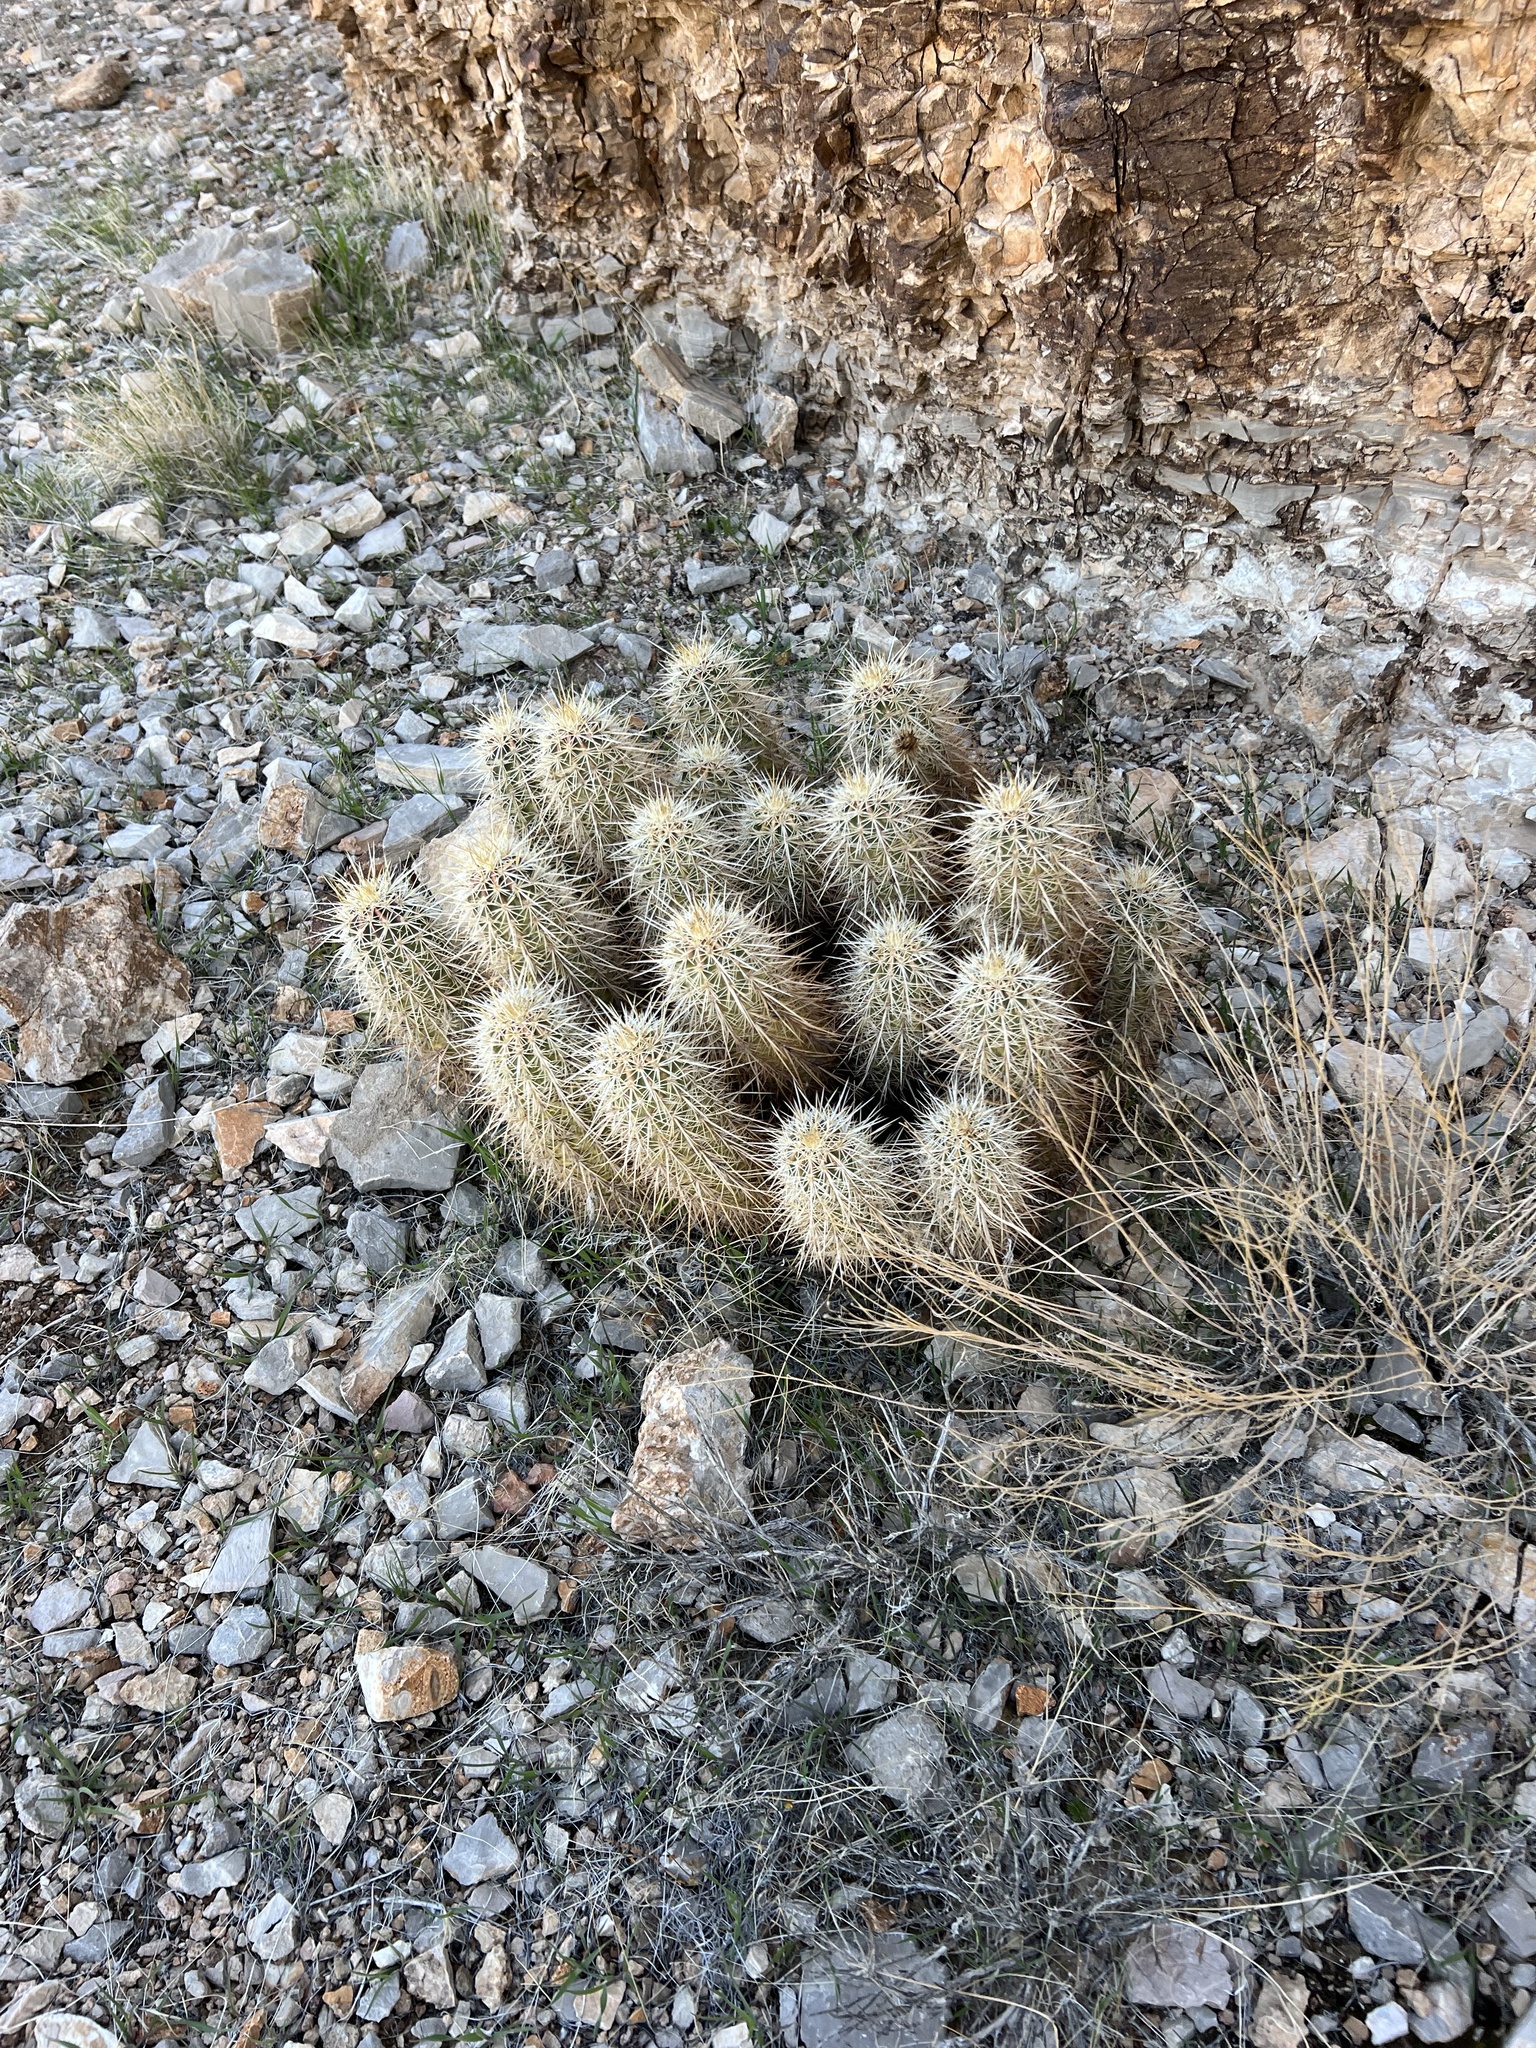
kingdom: Plantae
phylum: Tracheophyta
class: Magnoliopsida
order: Caryophyllales
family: Cactaceae
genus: Echinocereus
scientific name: Echinocereus engelmannii
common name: Engelmann's hedgehog cactus
